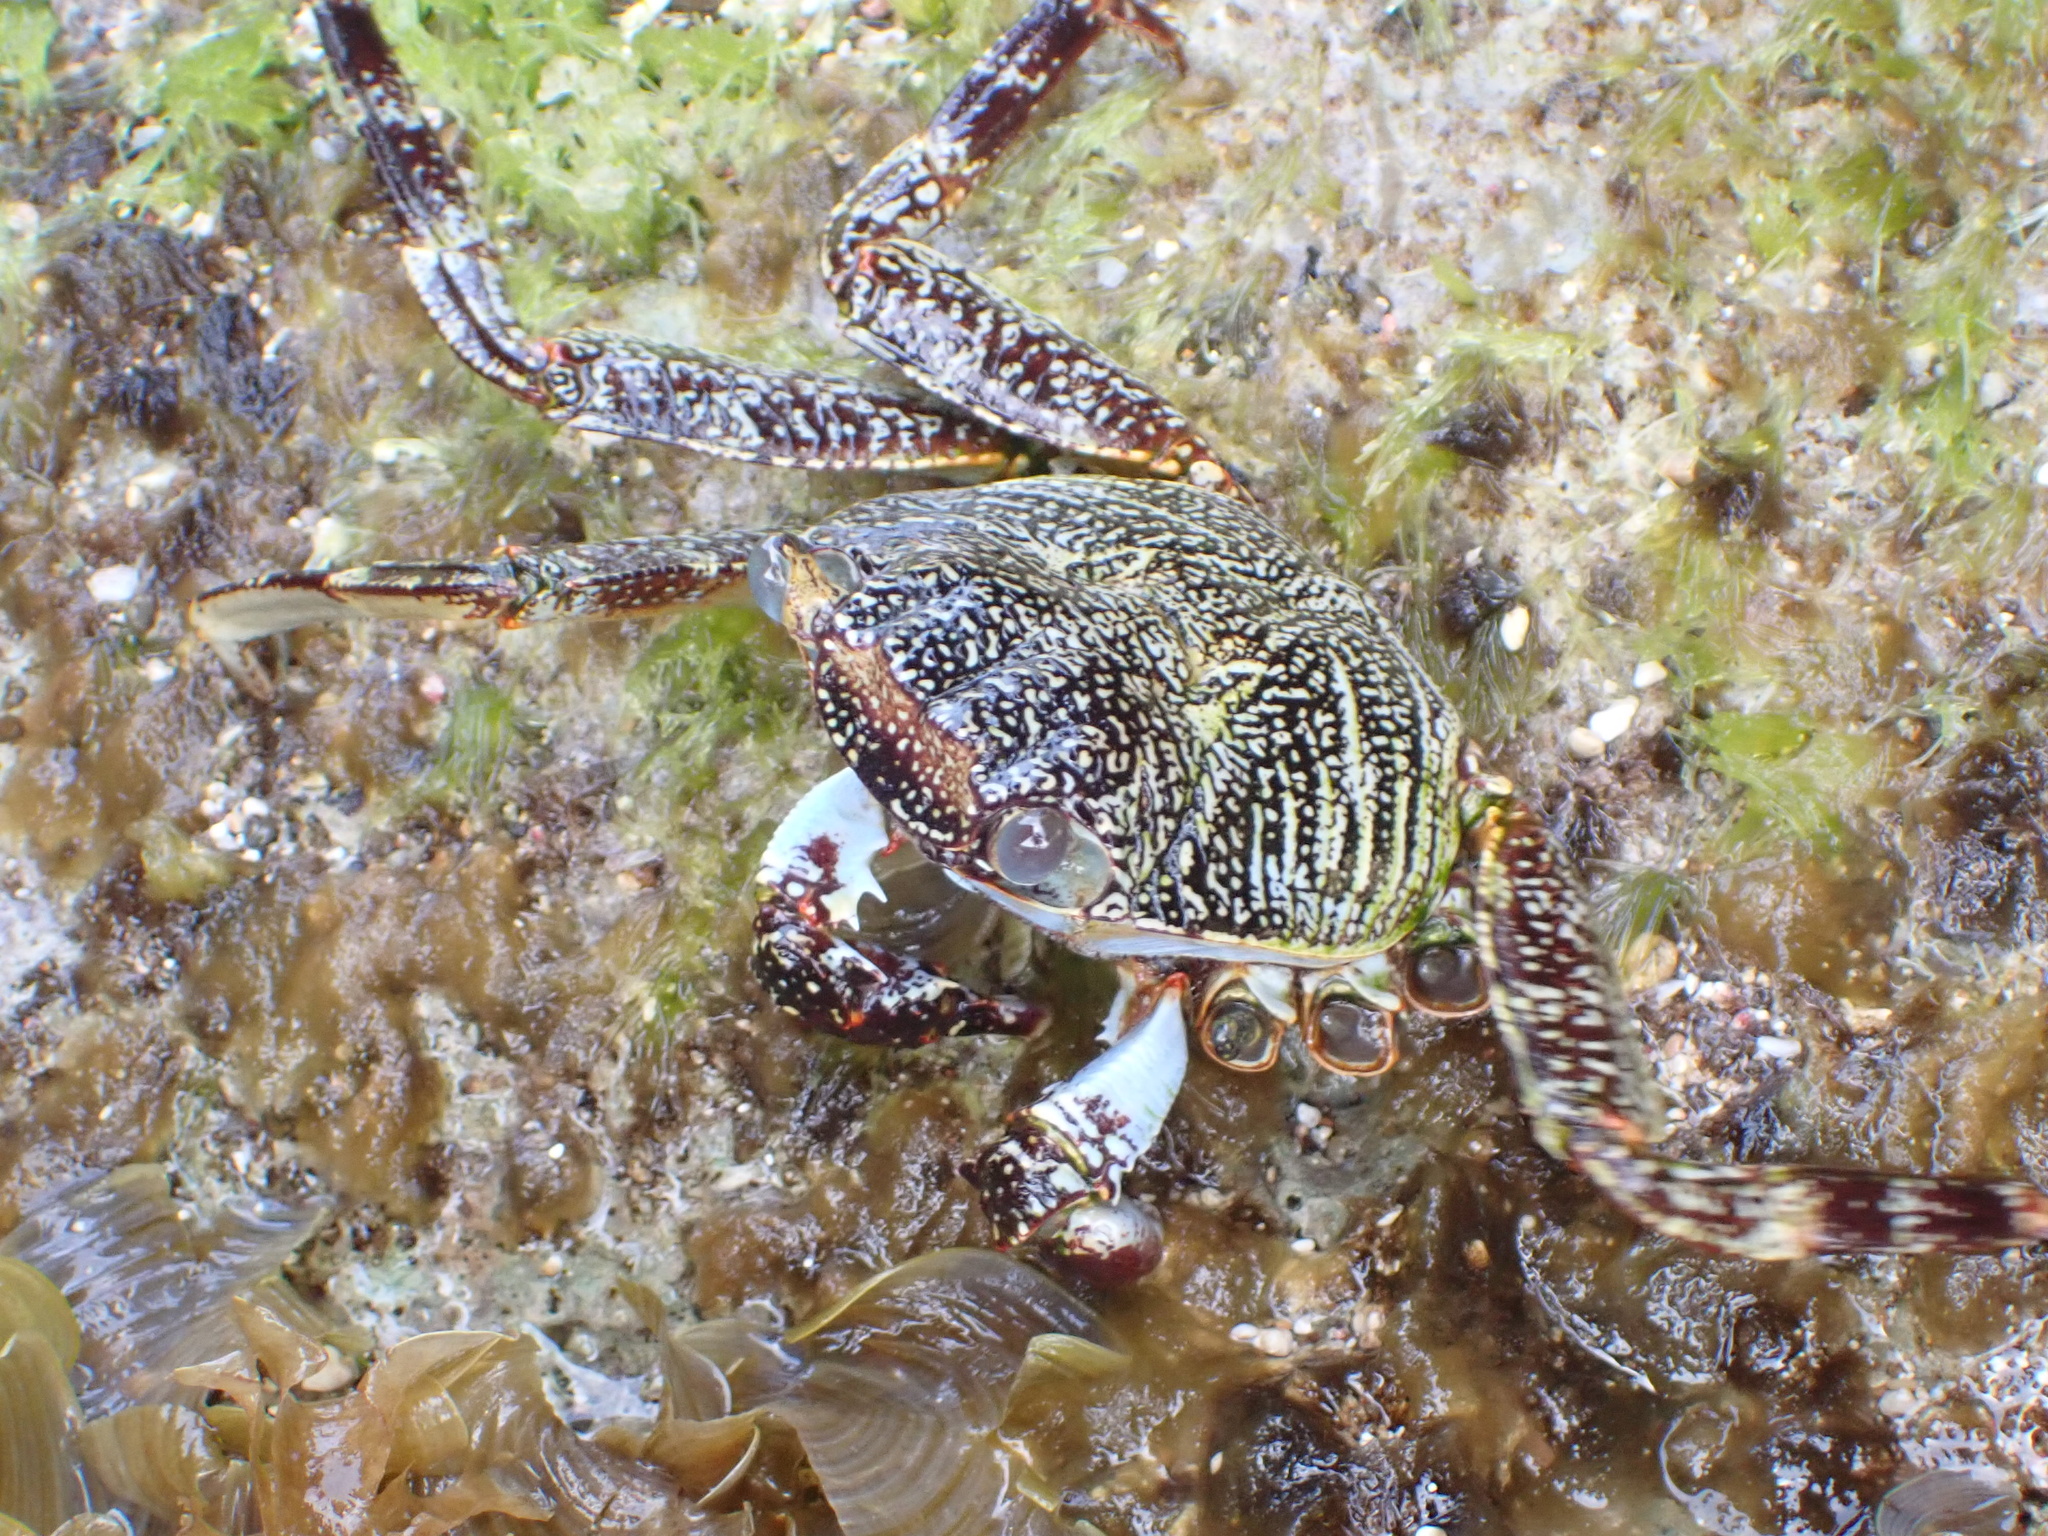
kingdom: Animalia
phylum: Arthropoda
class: Malacostraca
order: Decapoda
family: Grapsidae
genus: Grapsus
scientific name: Grapsus grapsus
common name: Sally lightfoot
